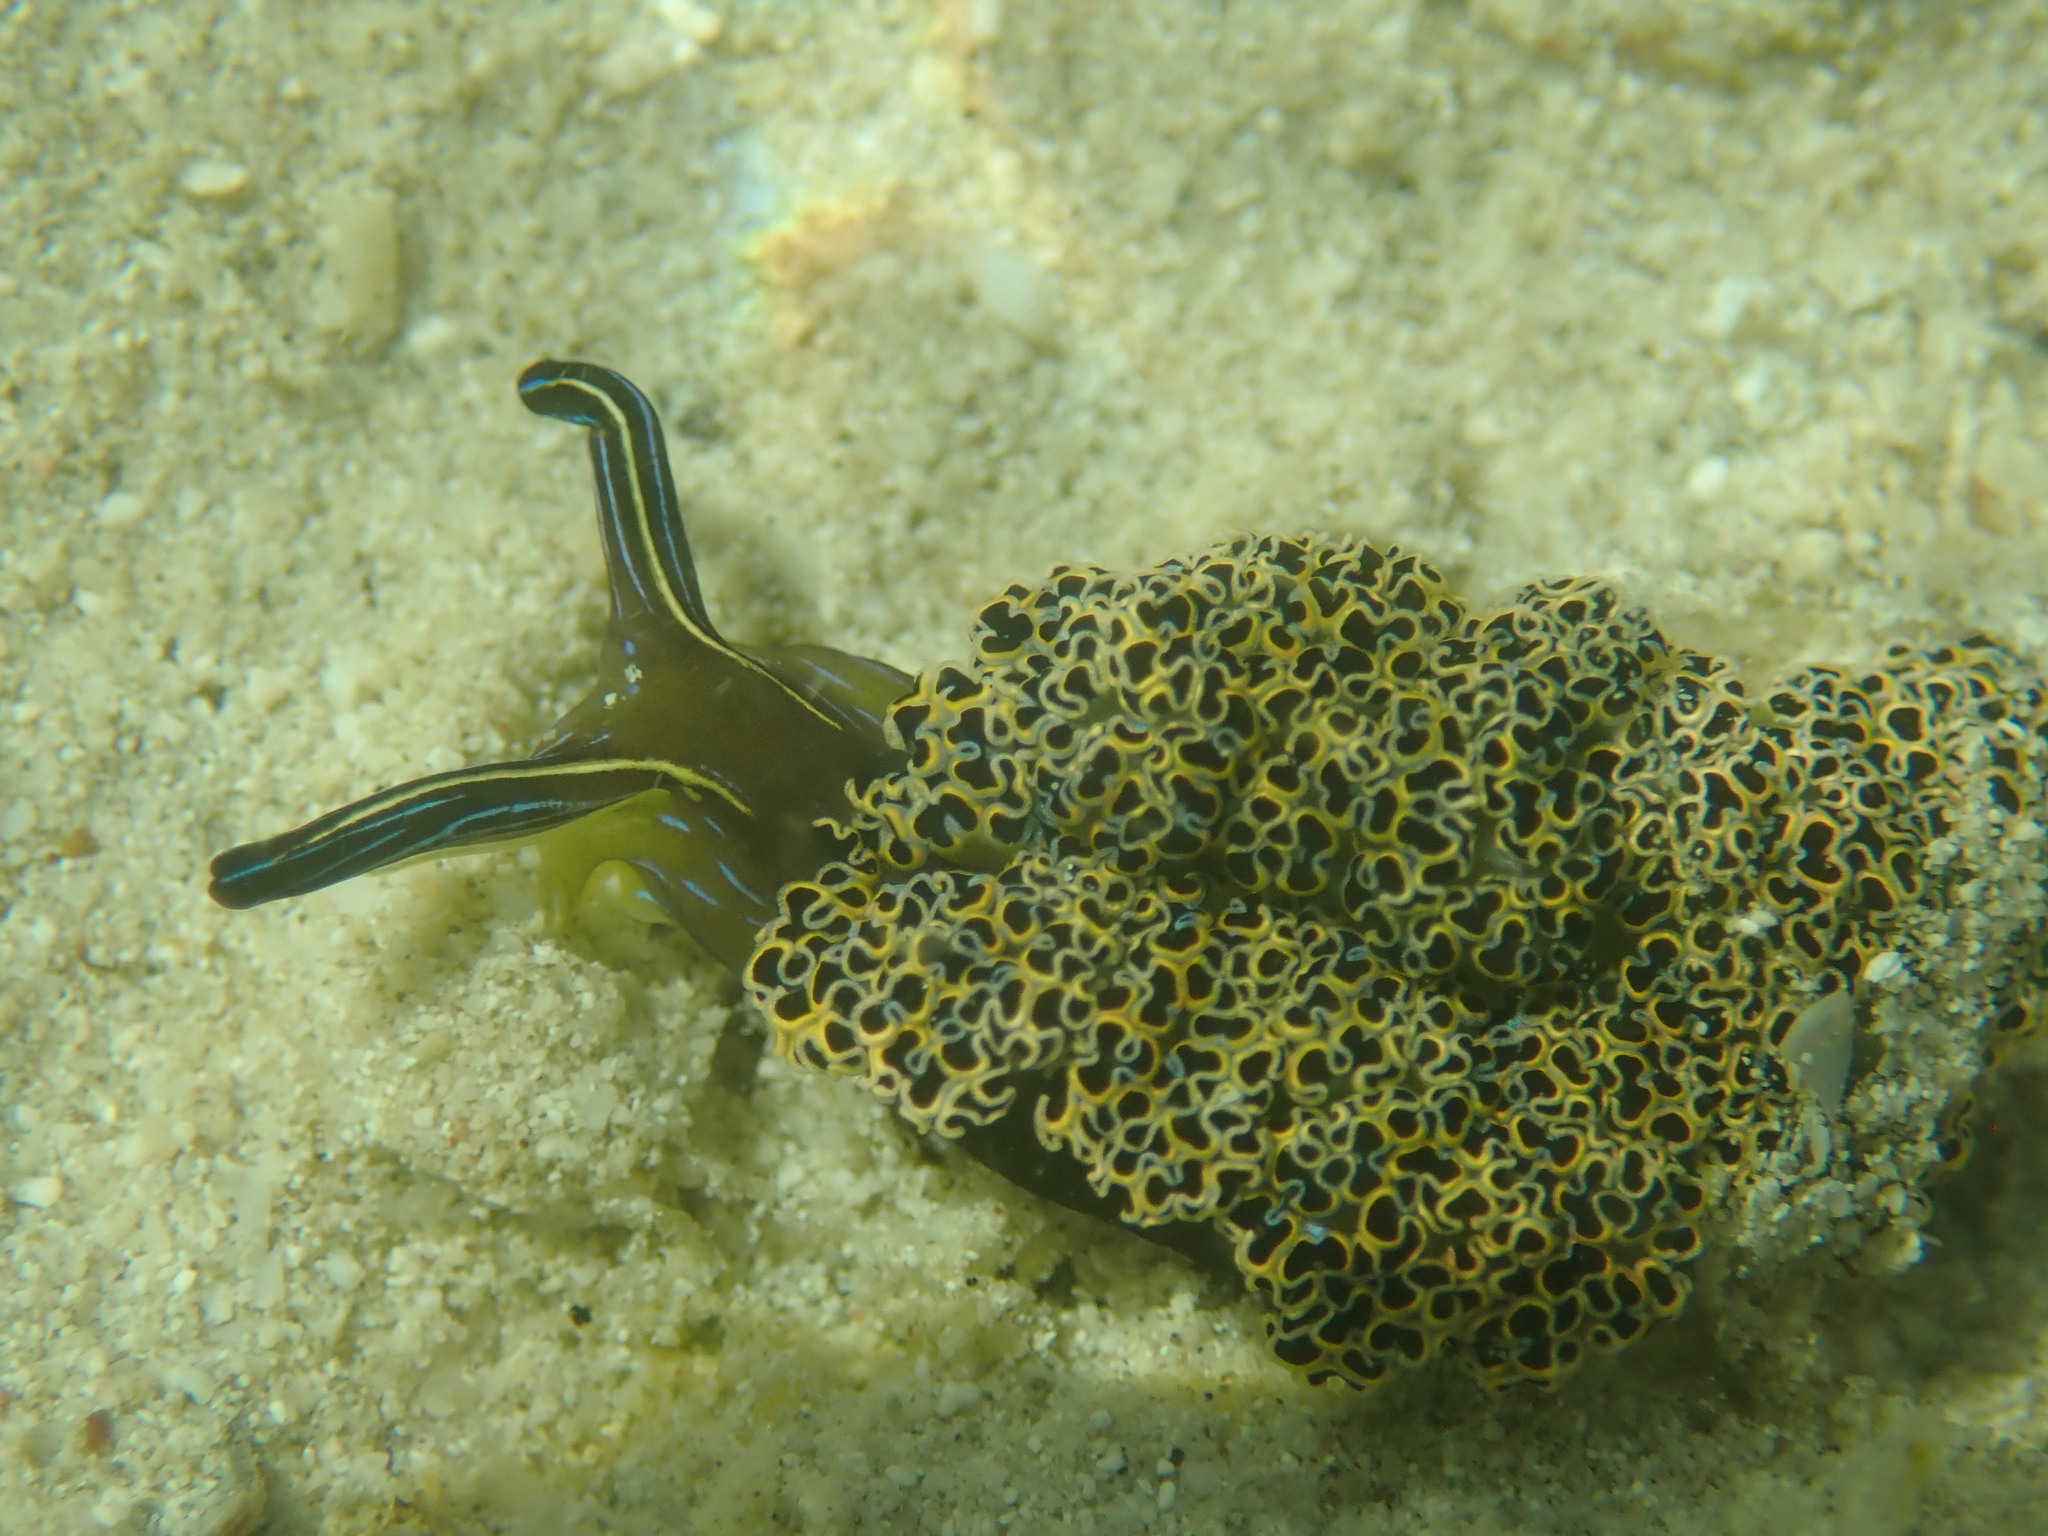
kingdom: Animalia
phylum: Mollusca
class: Gastropoda
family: Plakobranchidae
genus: Elysia
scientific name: Elysia diomedea
